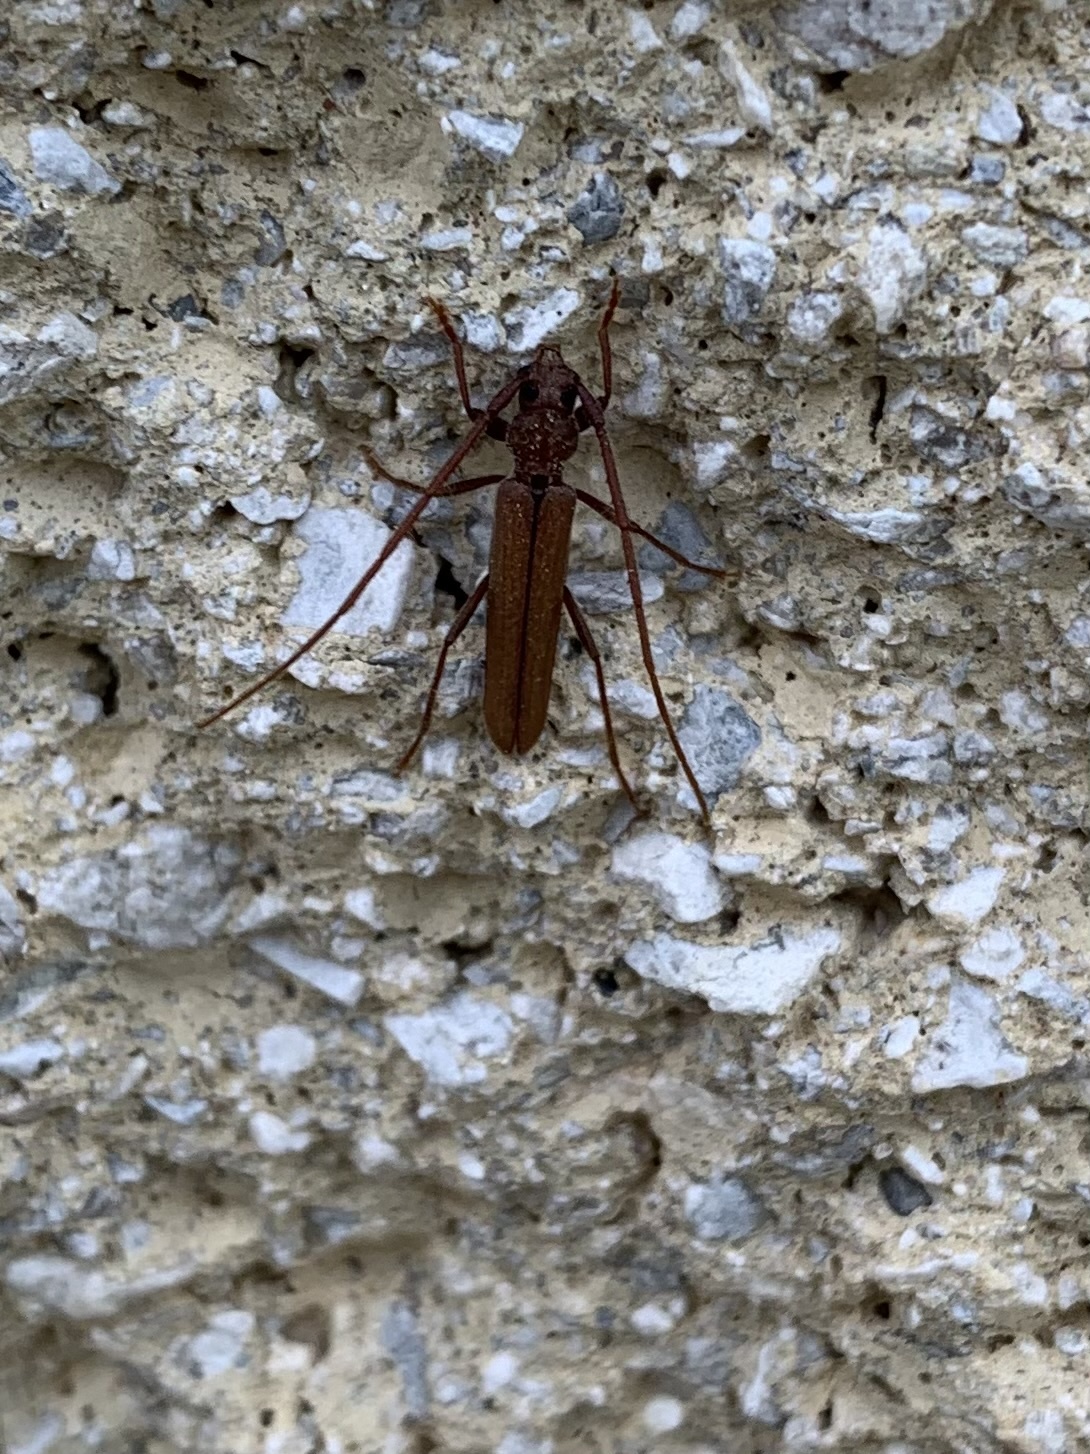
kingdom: Animalia
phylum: Arthropoda
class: Insecta
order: Coleoptera
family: Cerambycidae
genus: Oeme
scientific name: Oeme rigida
